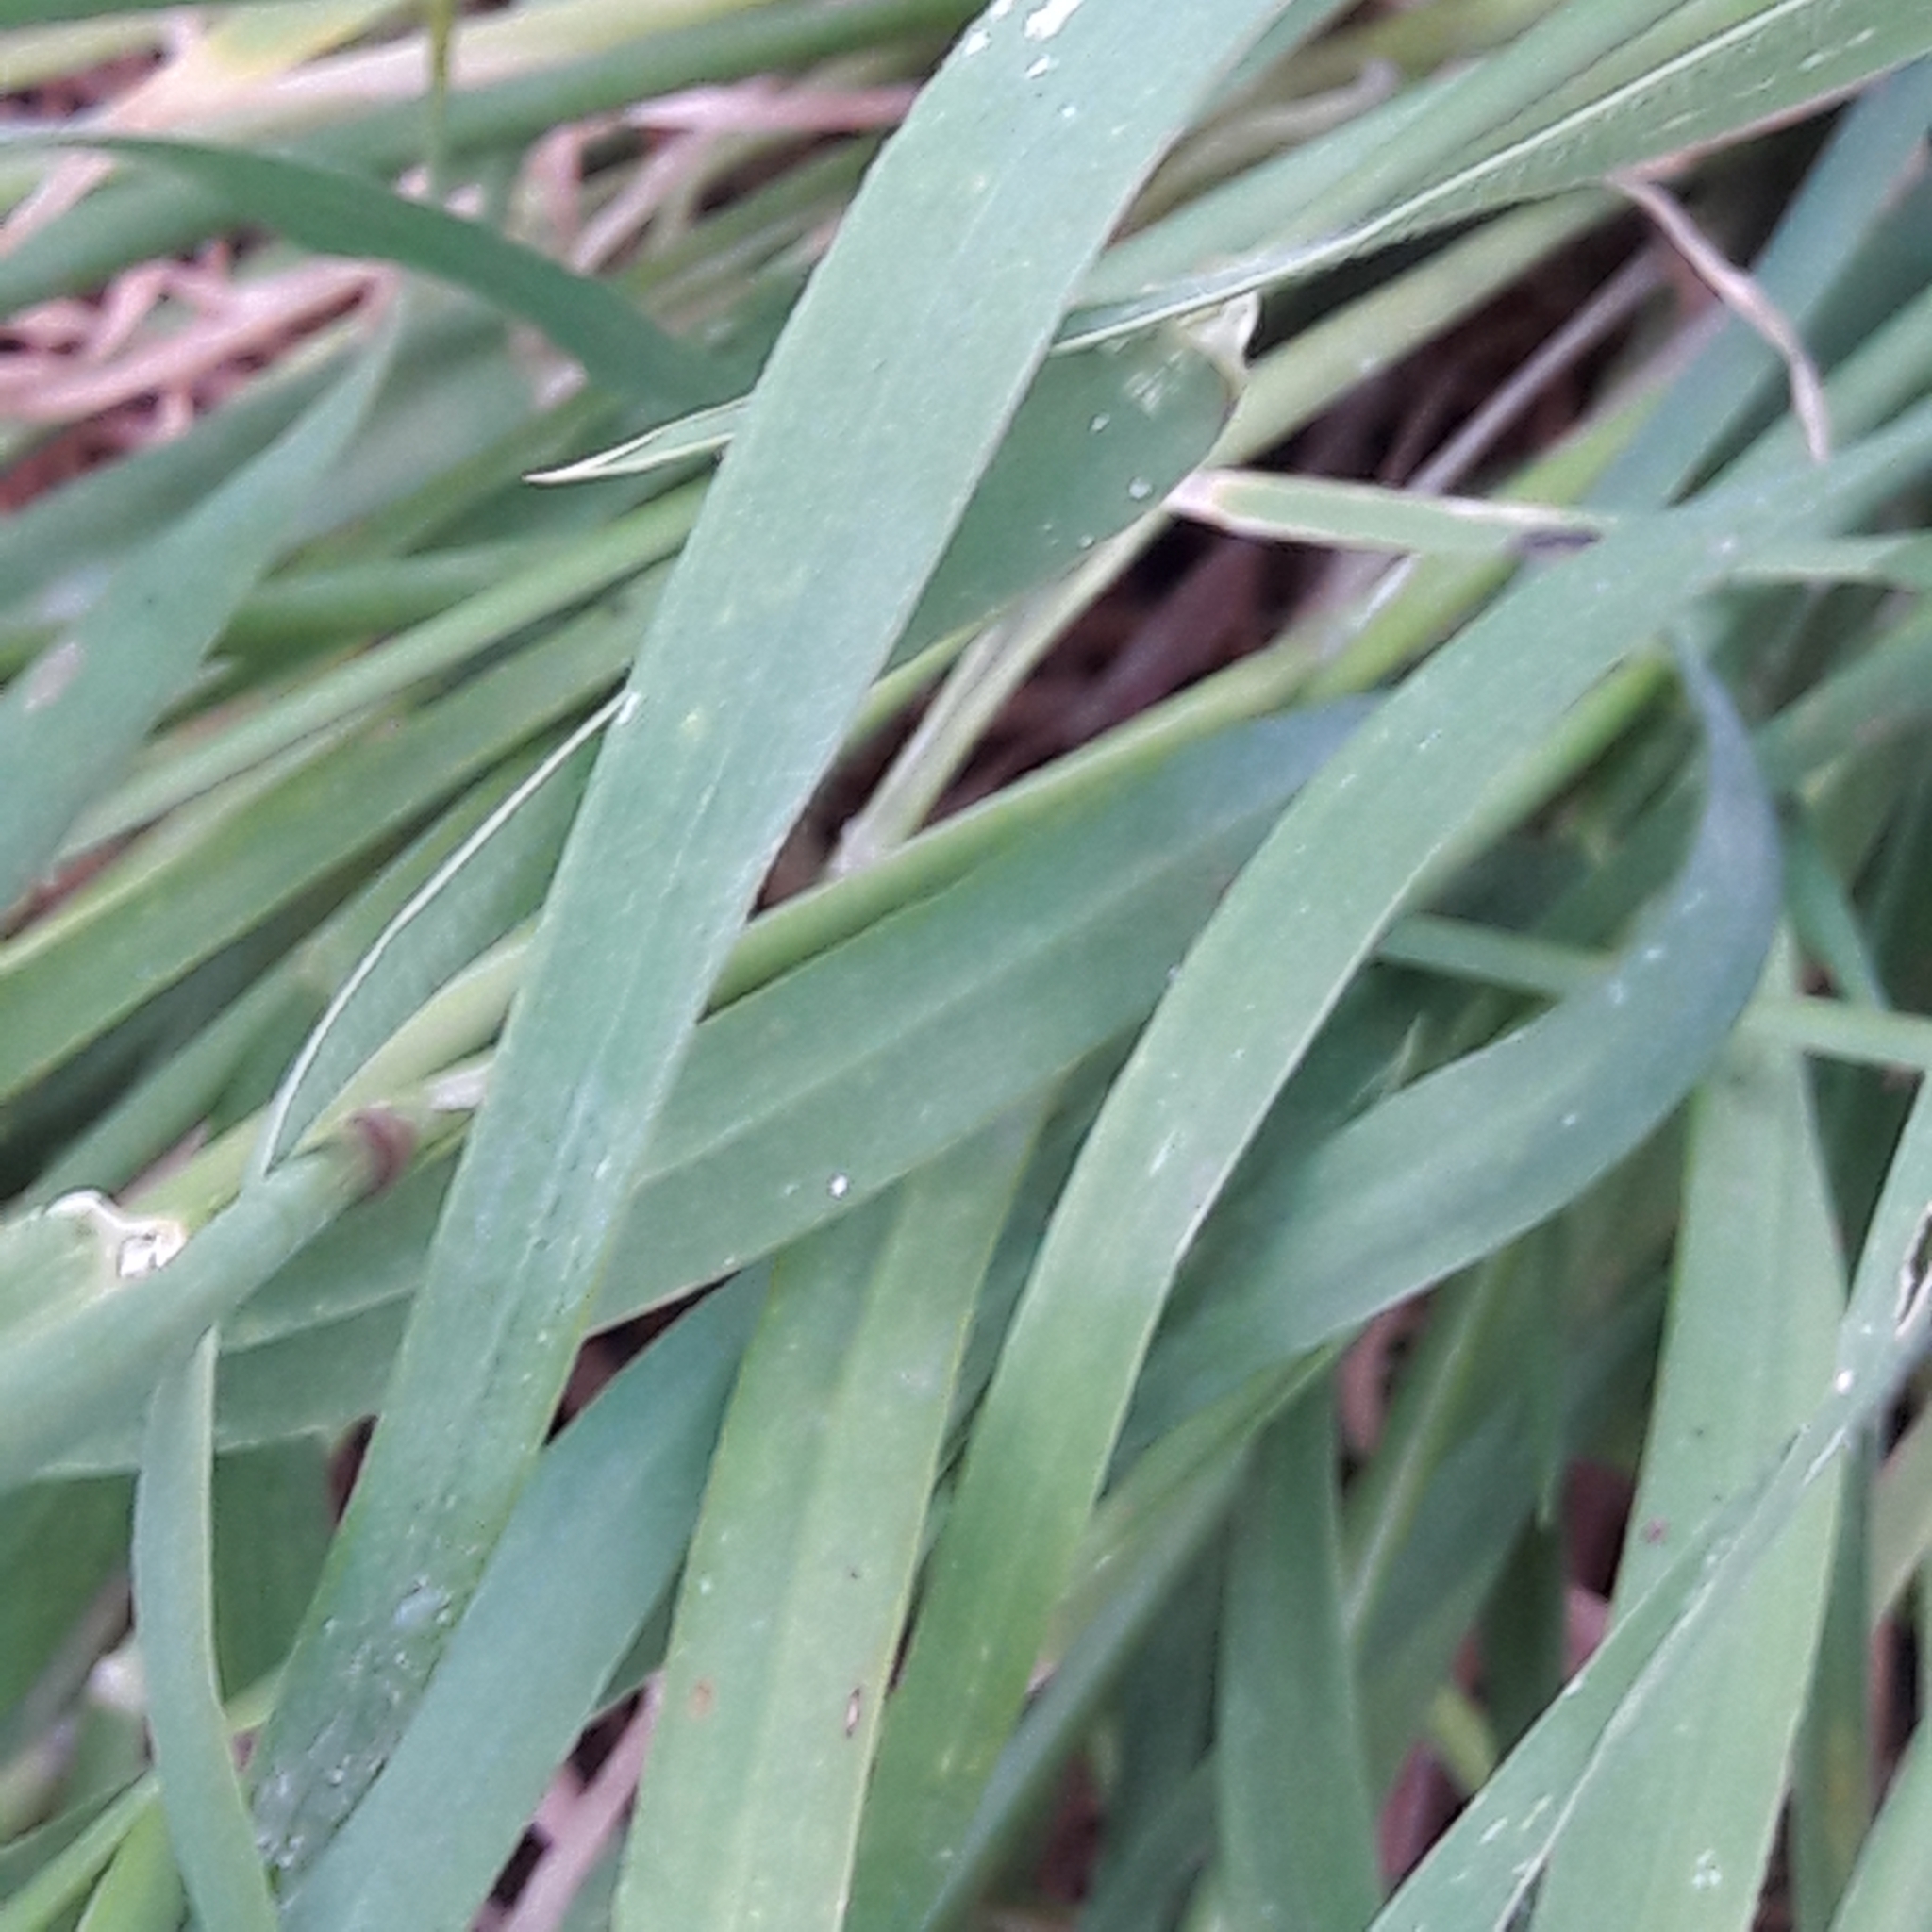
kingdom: Plantae
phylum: Tracheophyta
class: Liliopsida
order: Poales
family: Poaceae
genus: Hordeum
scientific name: Hordeum murinum
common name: Wall barley
